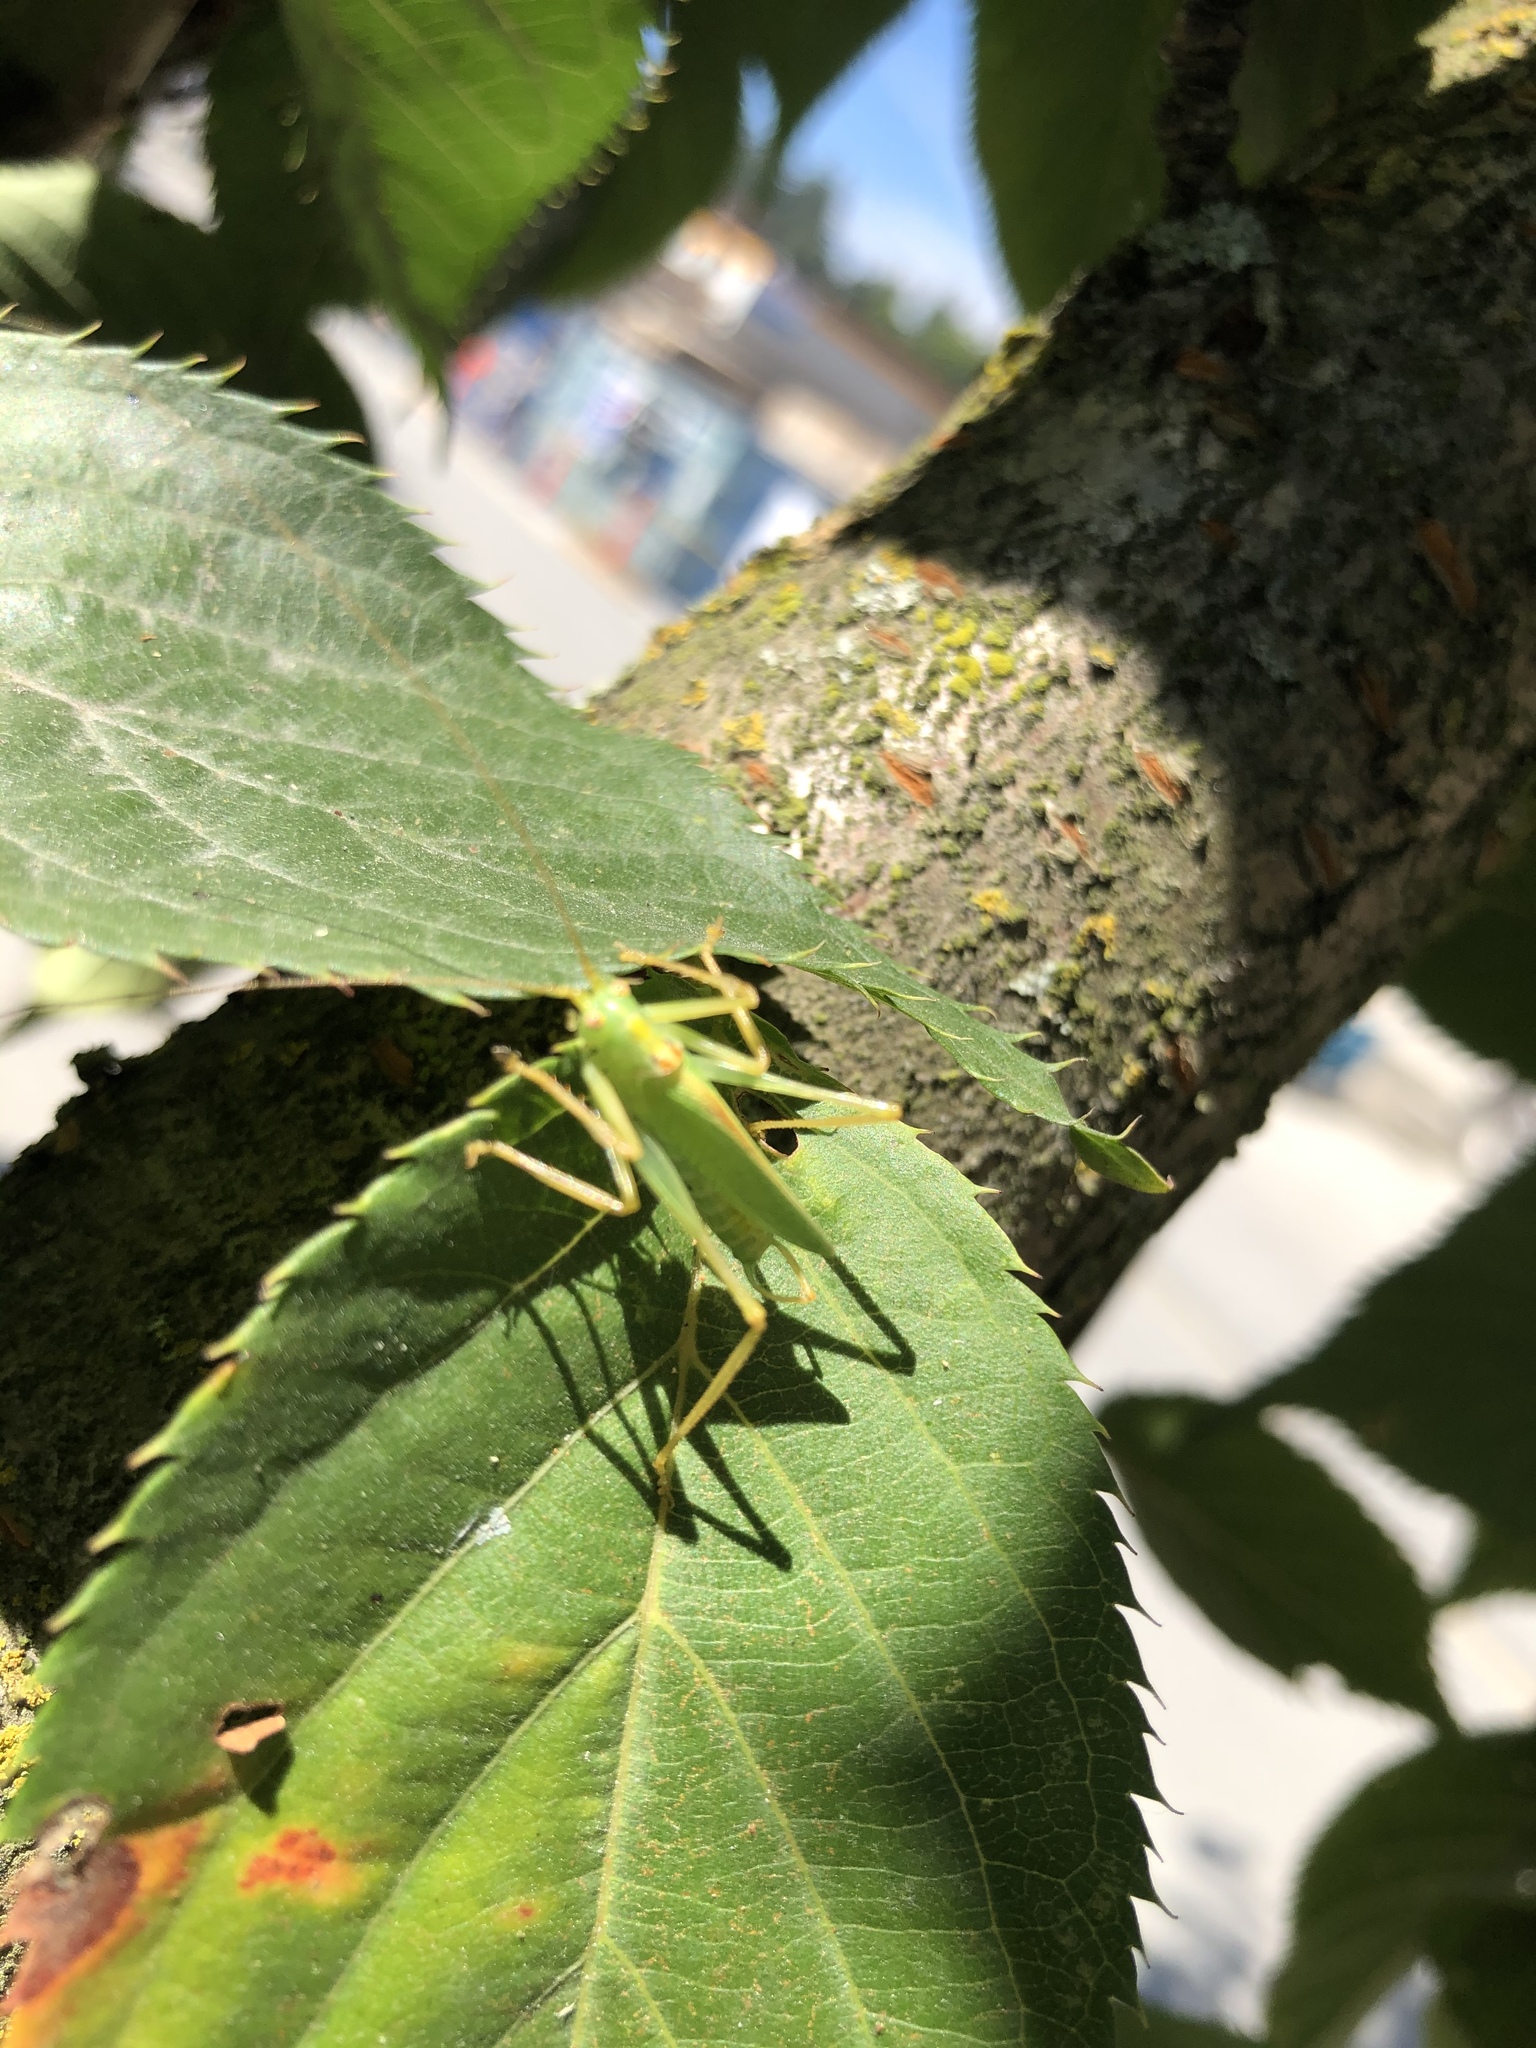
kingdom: Animalia
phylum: Arthropoda
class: Insecta
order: Orthoptera
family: Tettigoniidae
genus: Meconema
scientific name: Meconema thalassinum
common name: Oak bush-cricket
